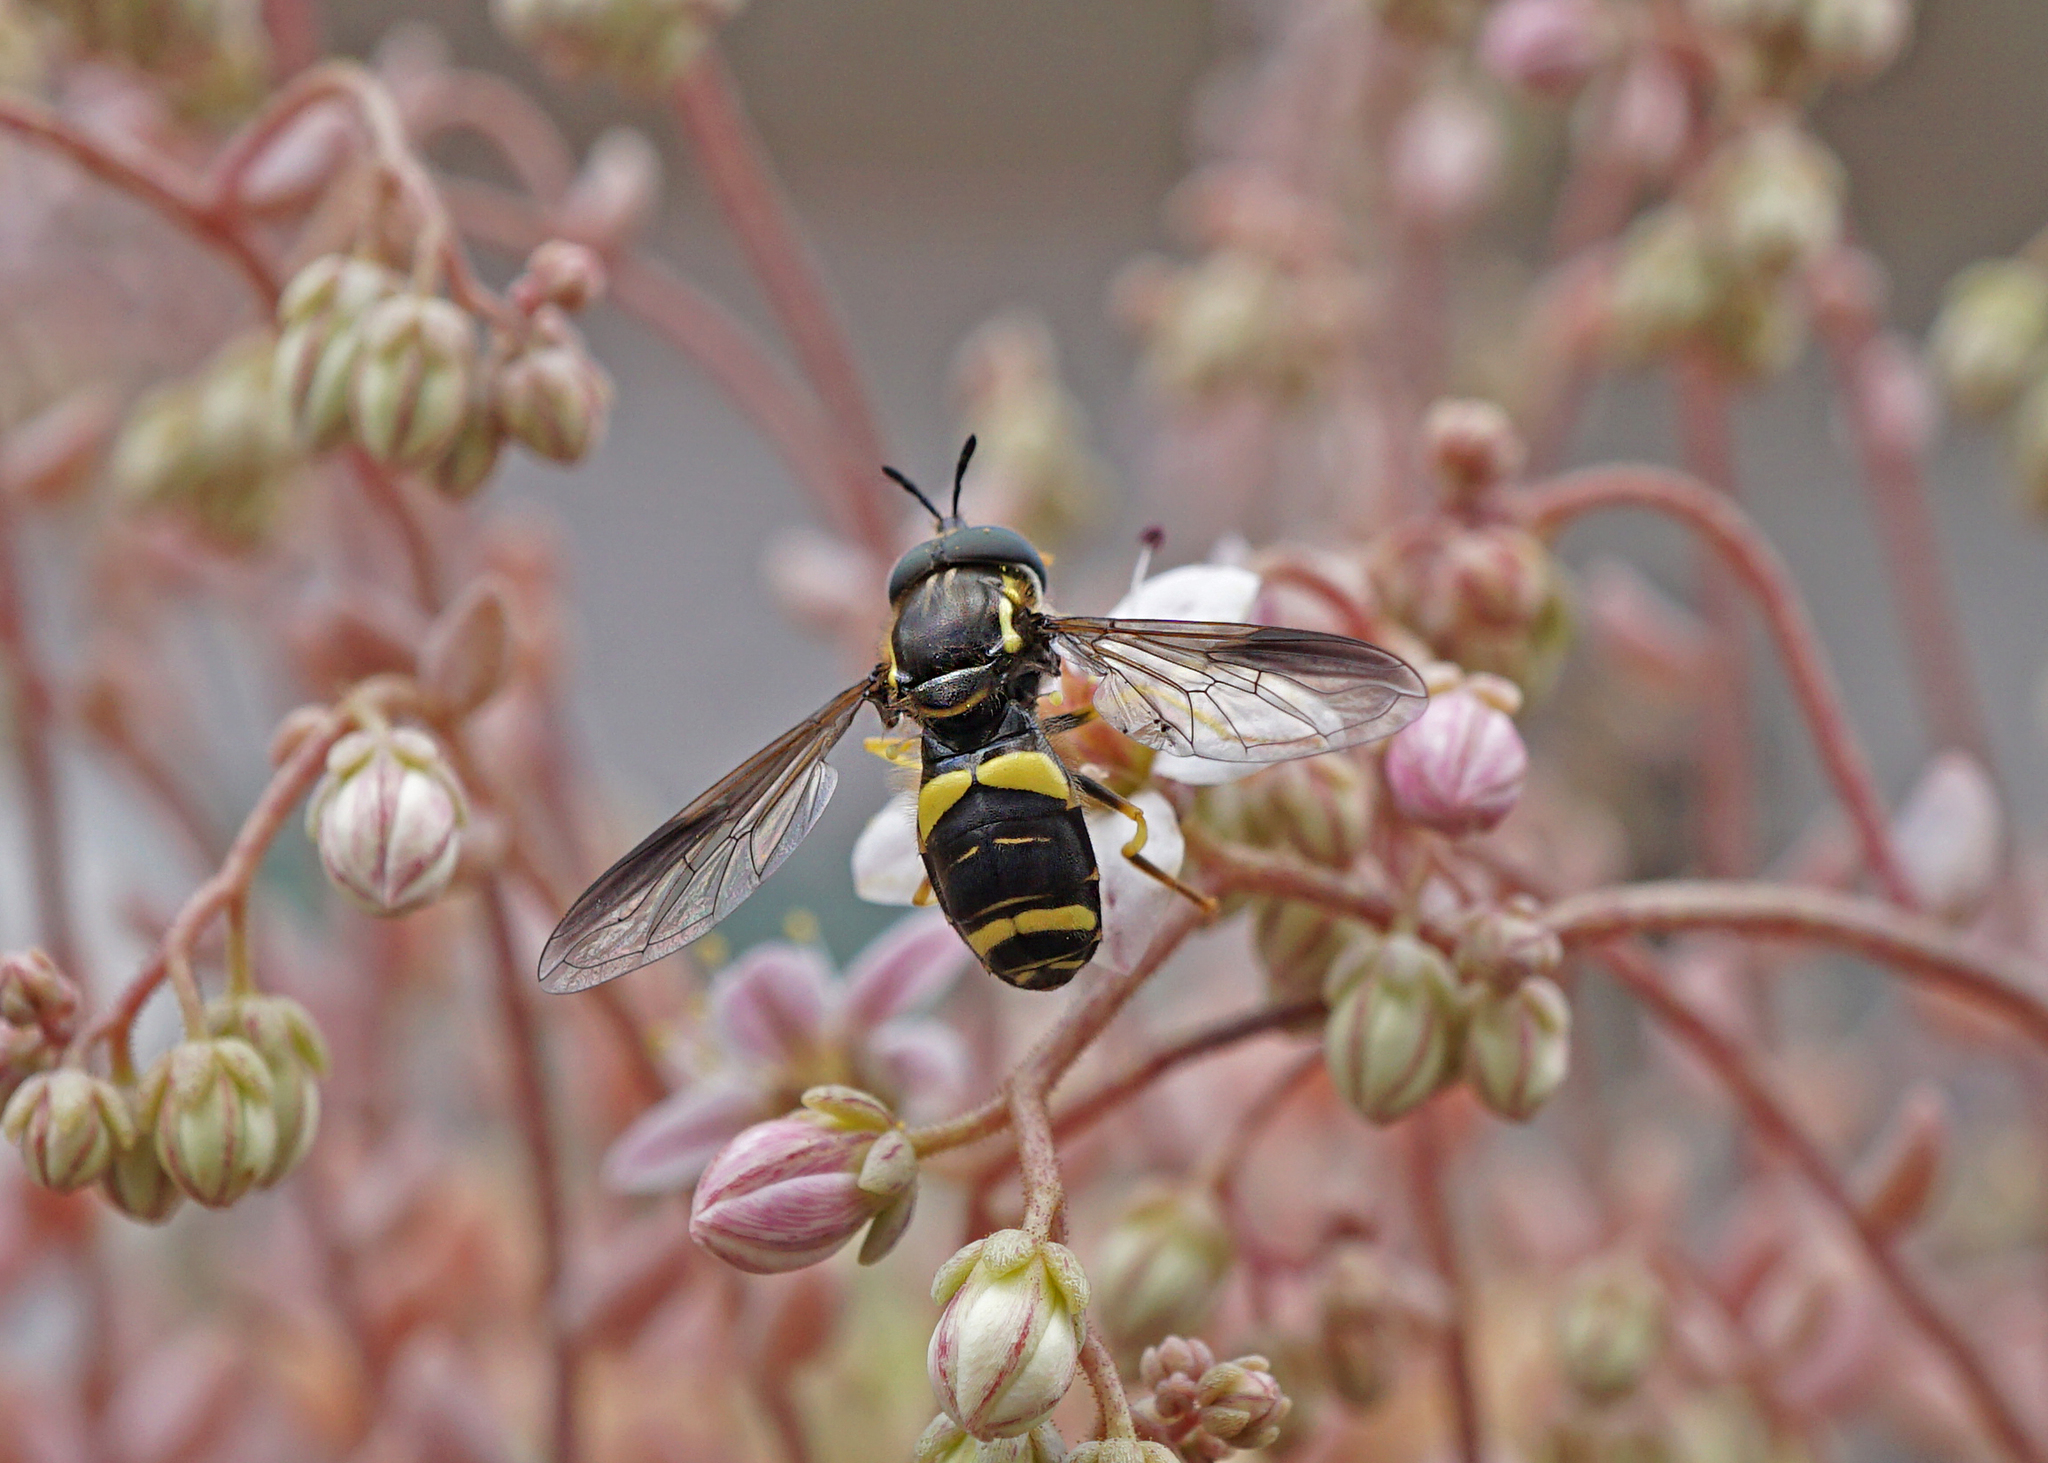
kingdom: Animalia
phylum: Arthropoda
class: Insecta
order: Diptera
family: Syrphidae
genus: Chrysotoxum
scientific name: Chrysotoxum bicincta
